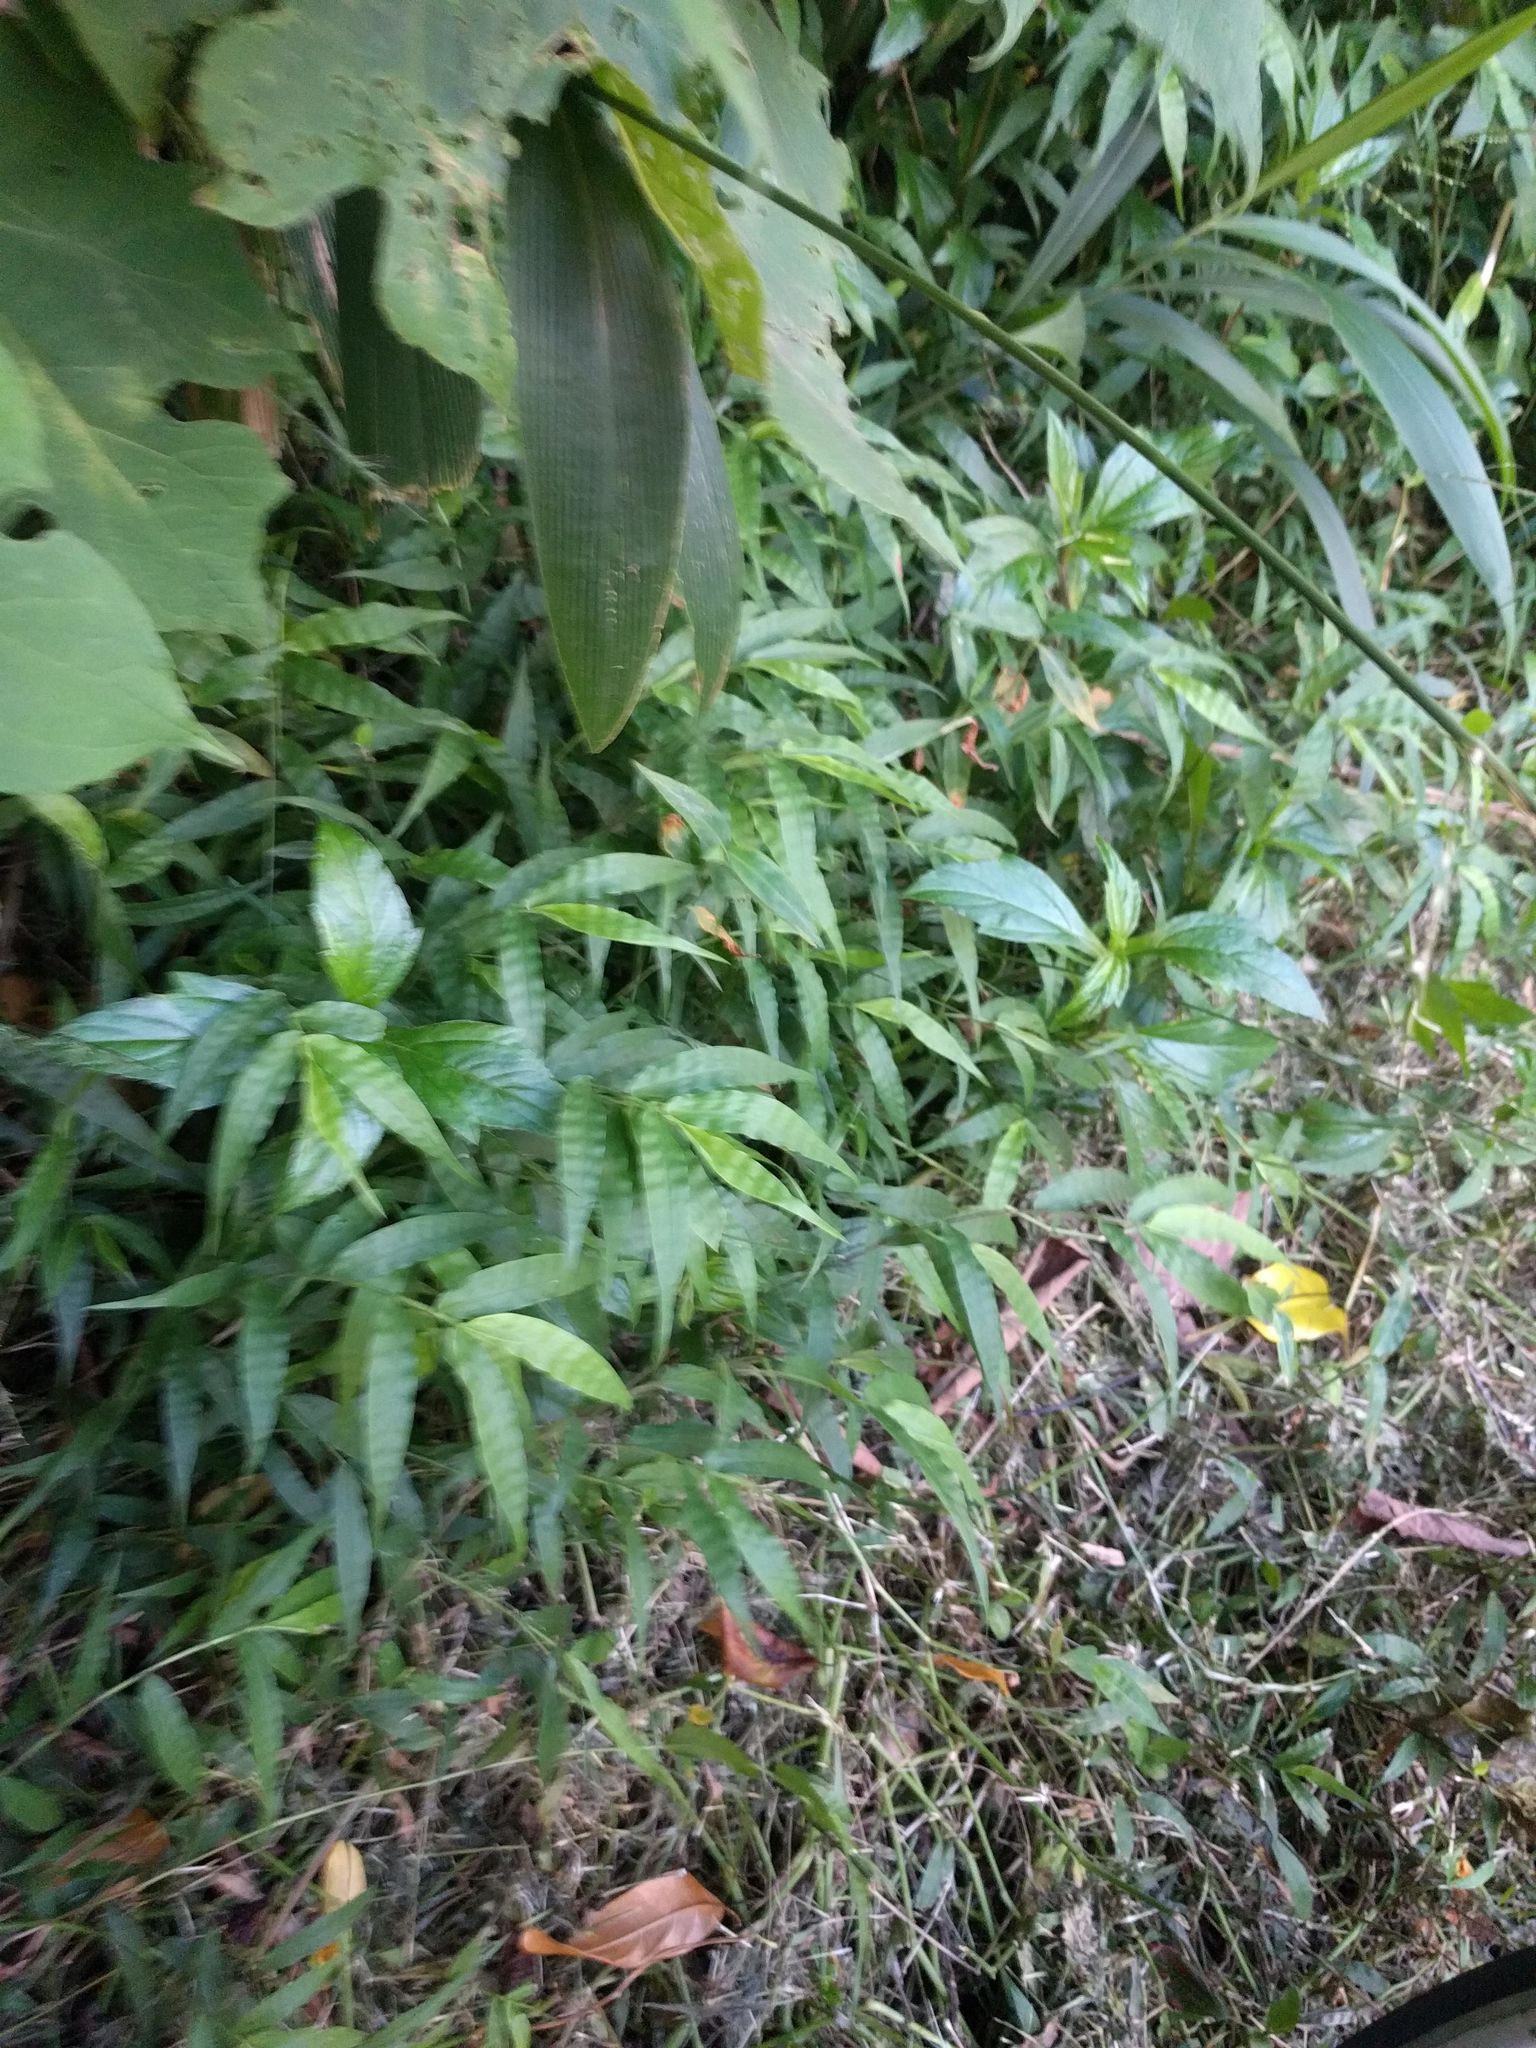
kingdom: Plantae
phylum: Tracheophyta
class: Liliopsida
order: Poales
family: Poaceae
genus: Oplismenus
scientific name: Oplismenus hirtellus
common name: Basketgrass
